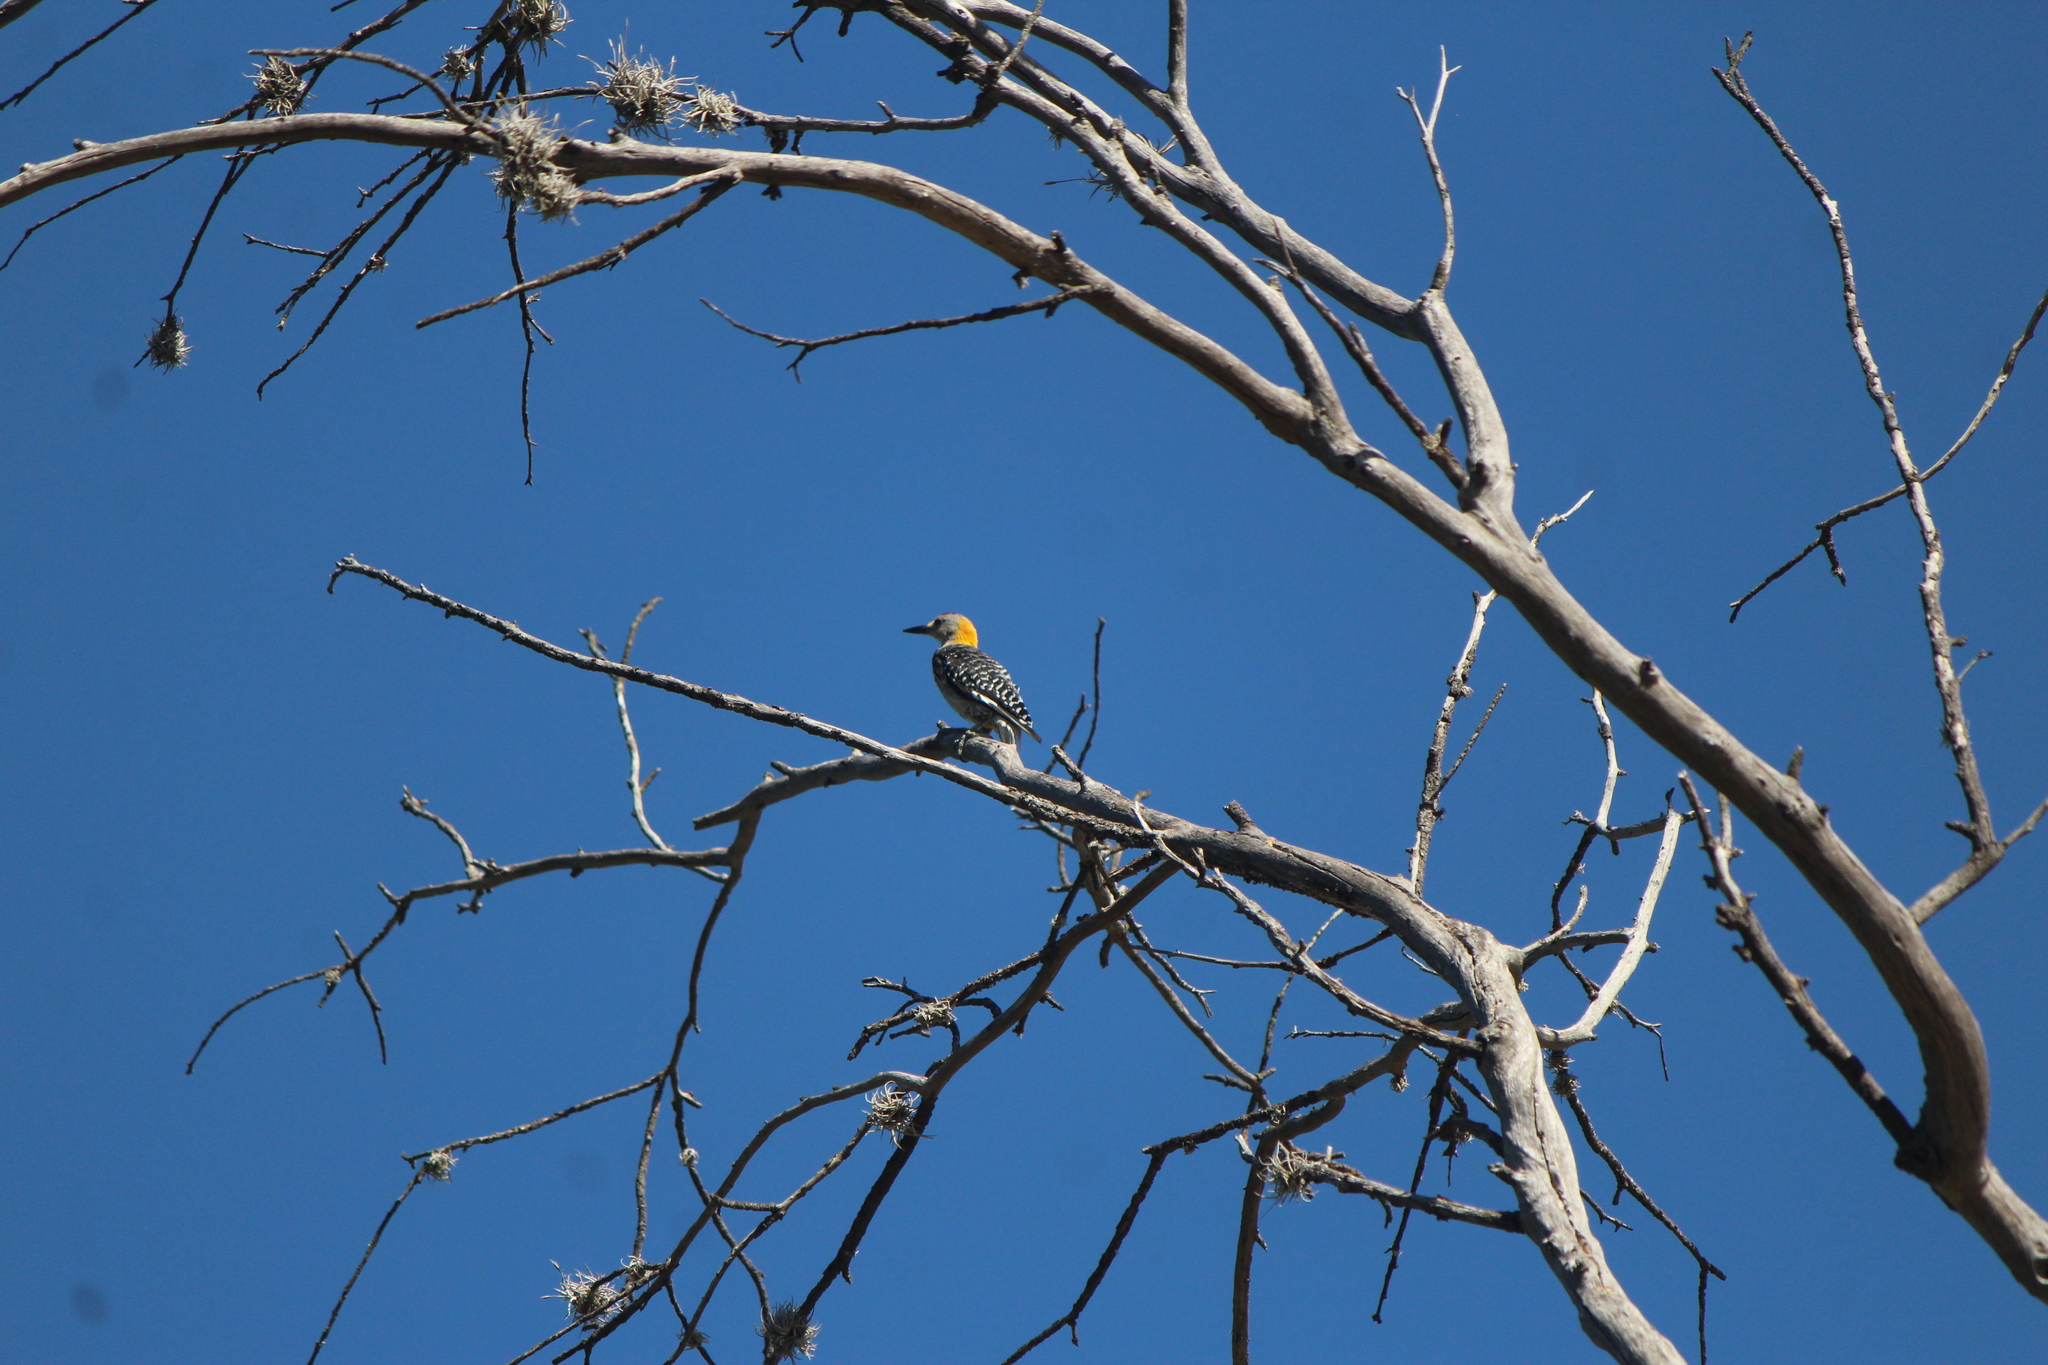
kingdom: Animalia
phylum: Chordata
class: Aves
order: Piciformes
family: Picidae
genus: Melanerpes
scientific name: Melanerpes aurifrons
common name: Golden-fronted woodpecker
